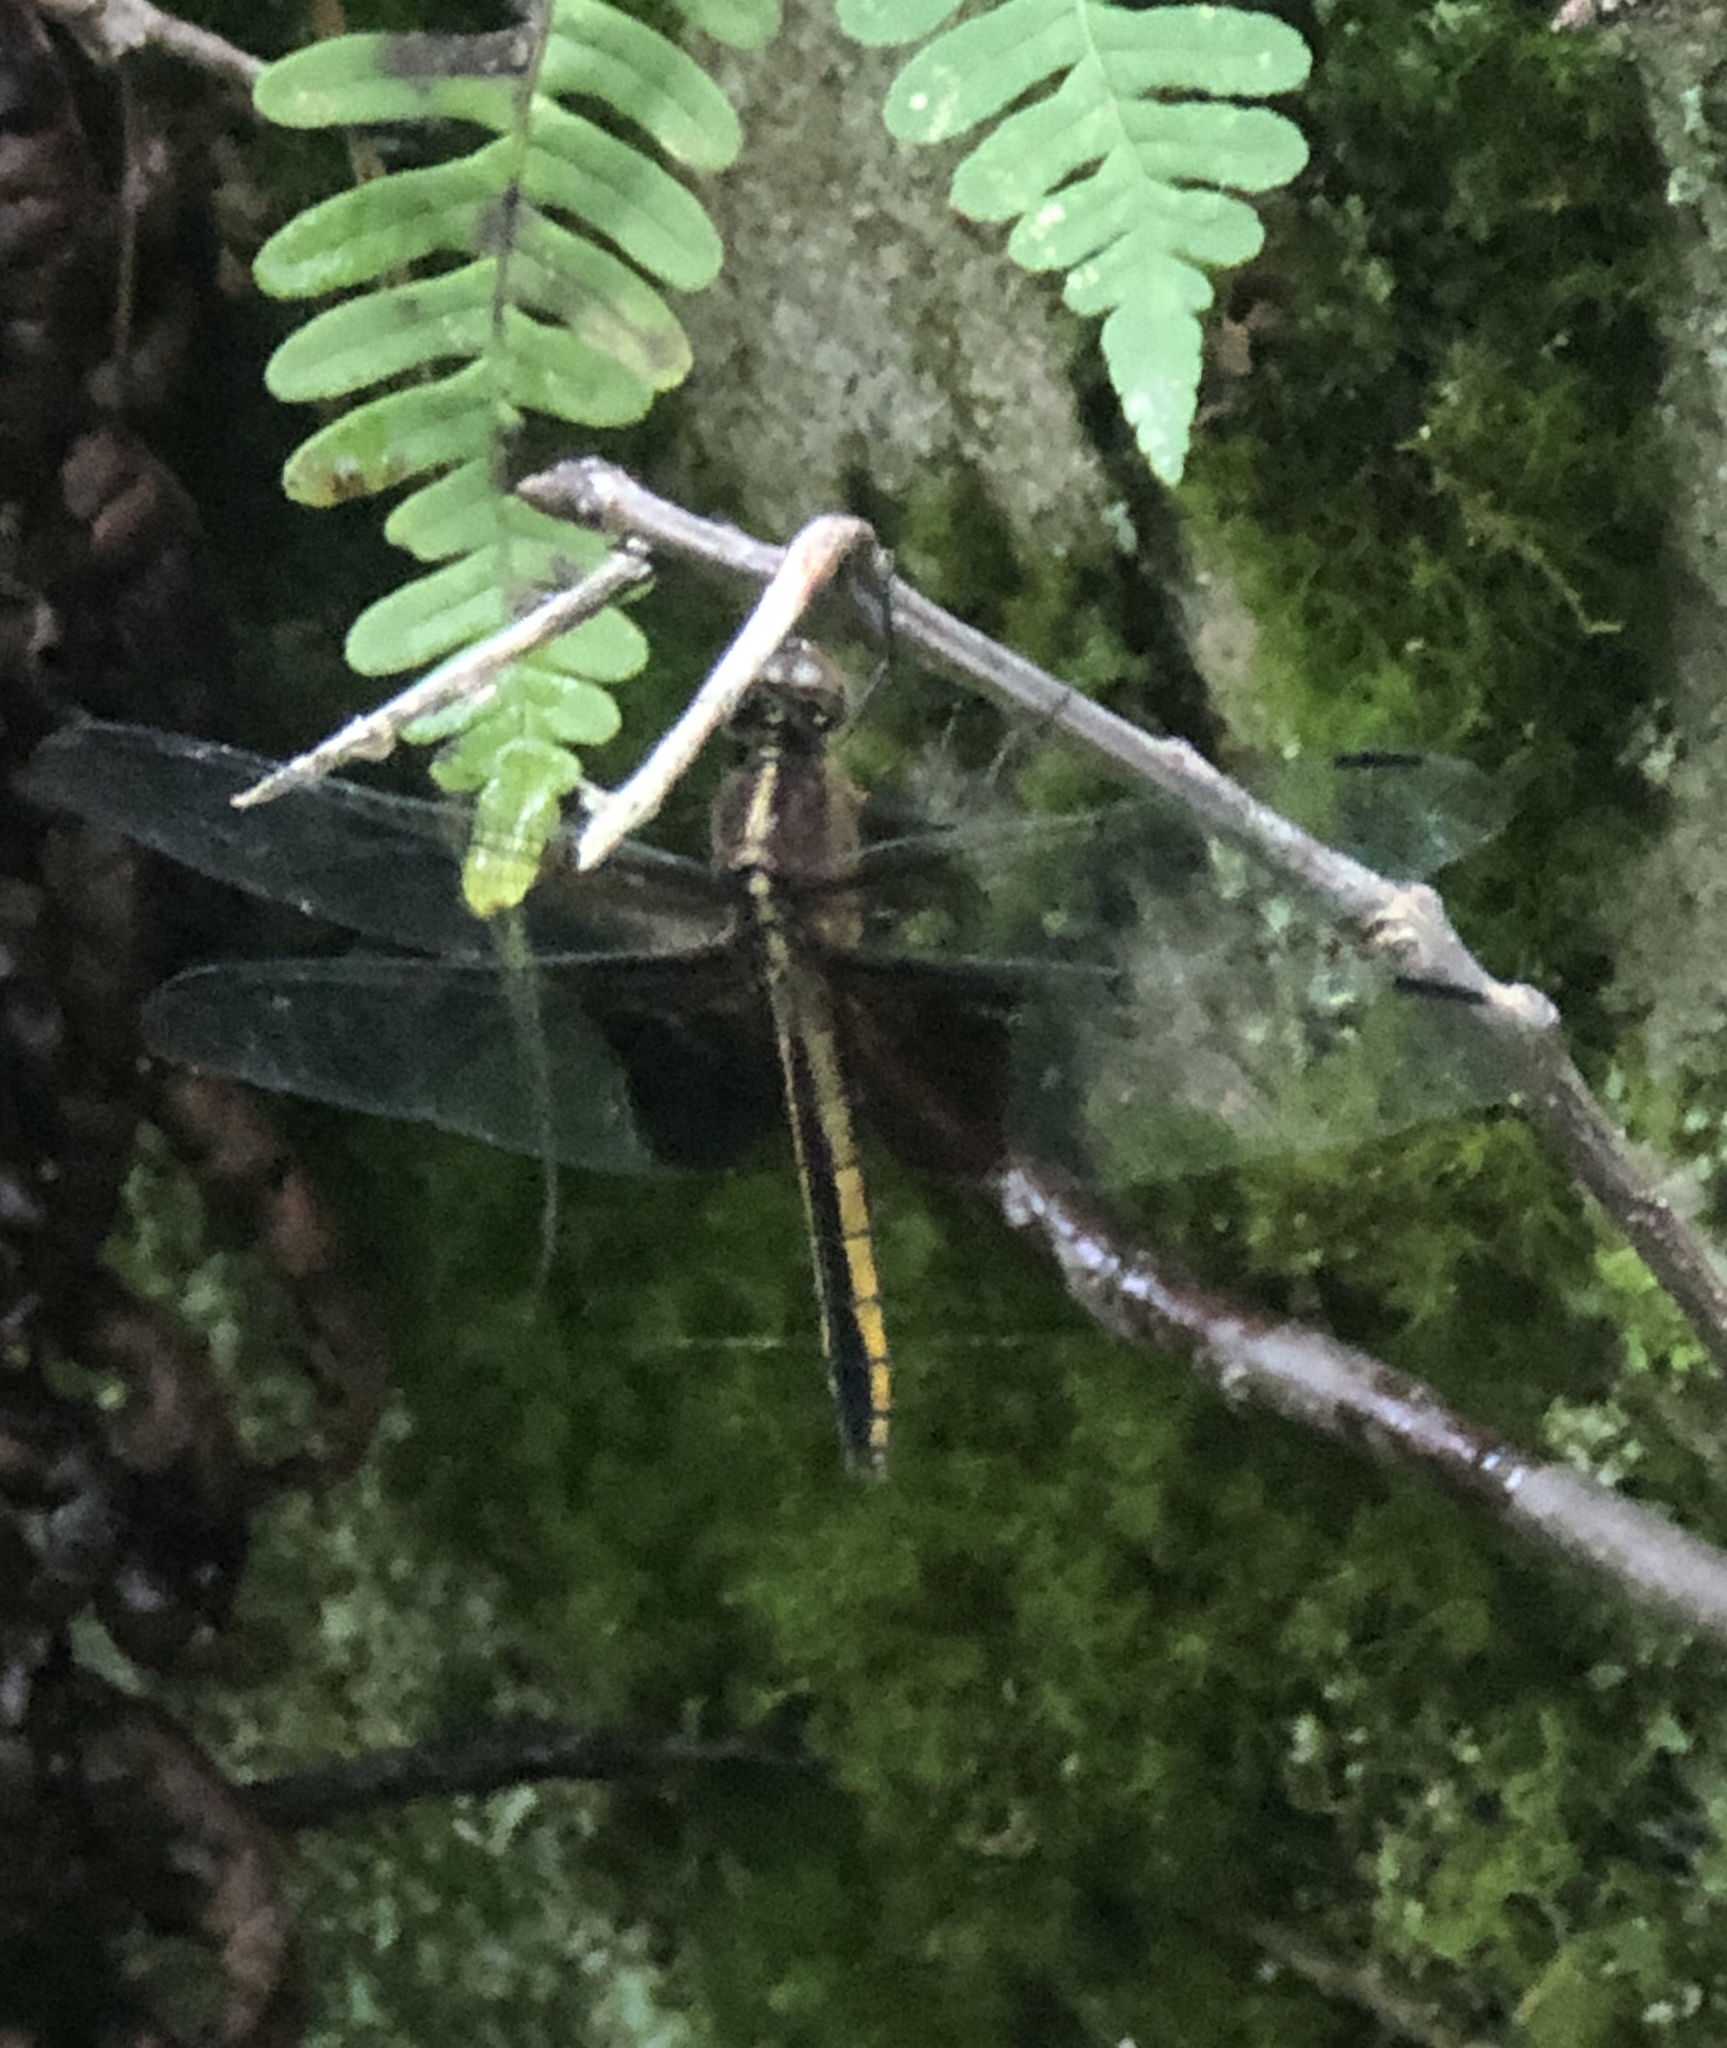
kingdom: Animalia
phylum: Arthropoda
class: Insecta
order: Odonata
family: Libellulidae
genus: Libellula
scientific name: Libellula luctuosa
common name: Widow skimmer
